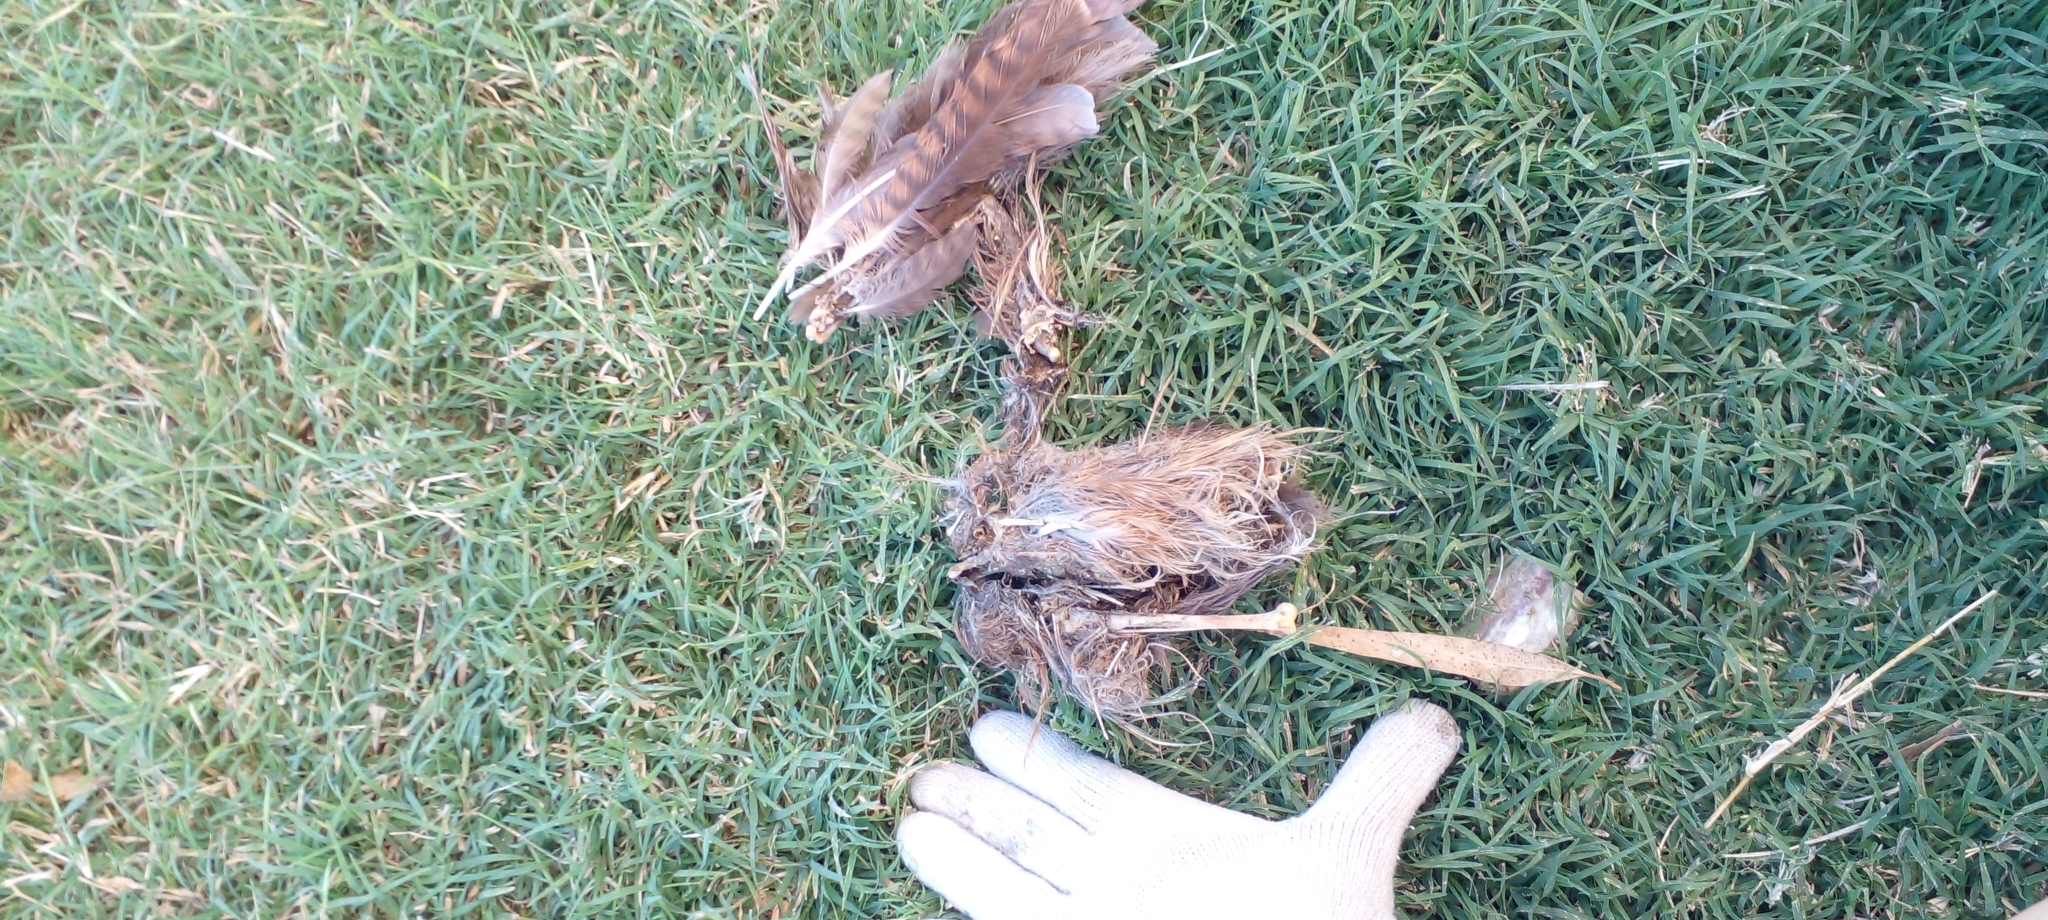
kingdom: Animalia
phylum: Chordata
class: Aves
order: Falconiformes
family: Falconidae
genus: Daptrius
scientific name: Daptrius
